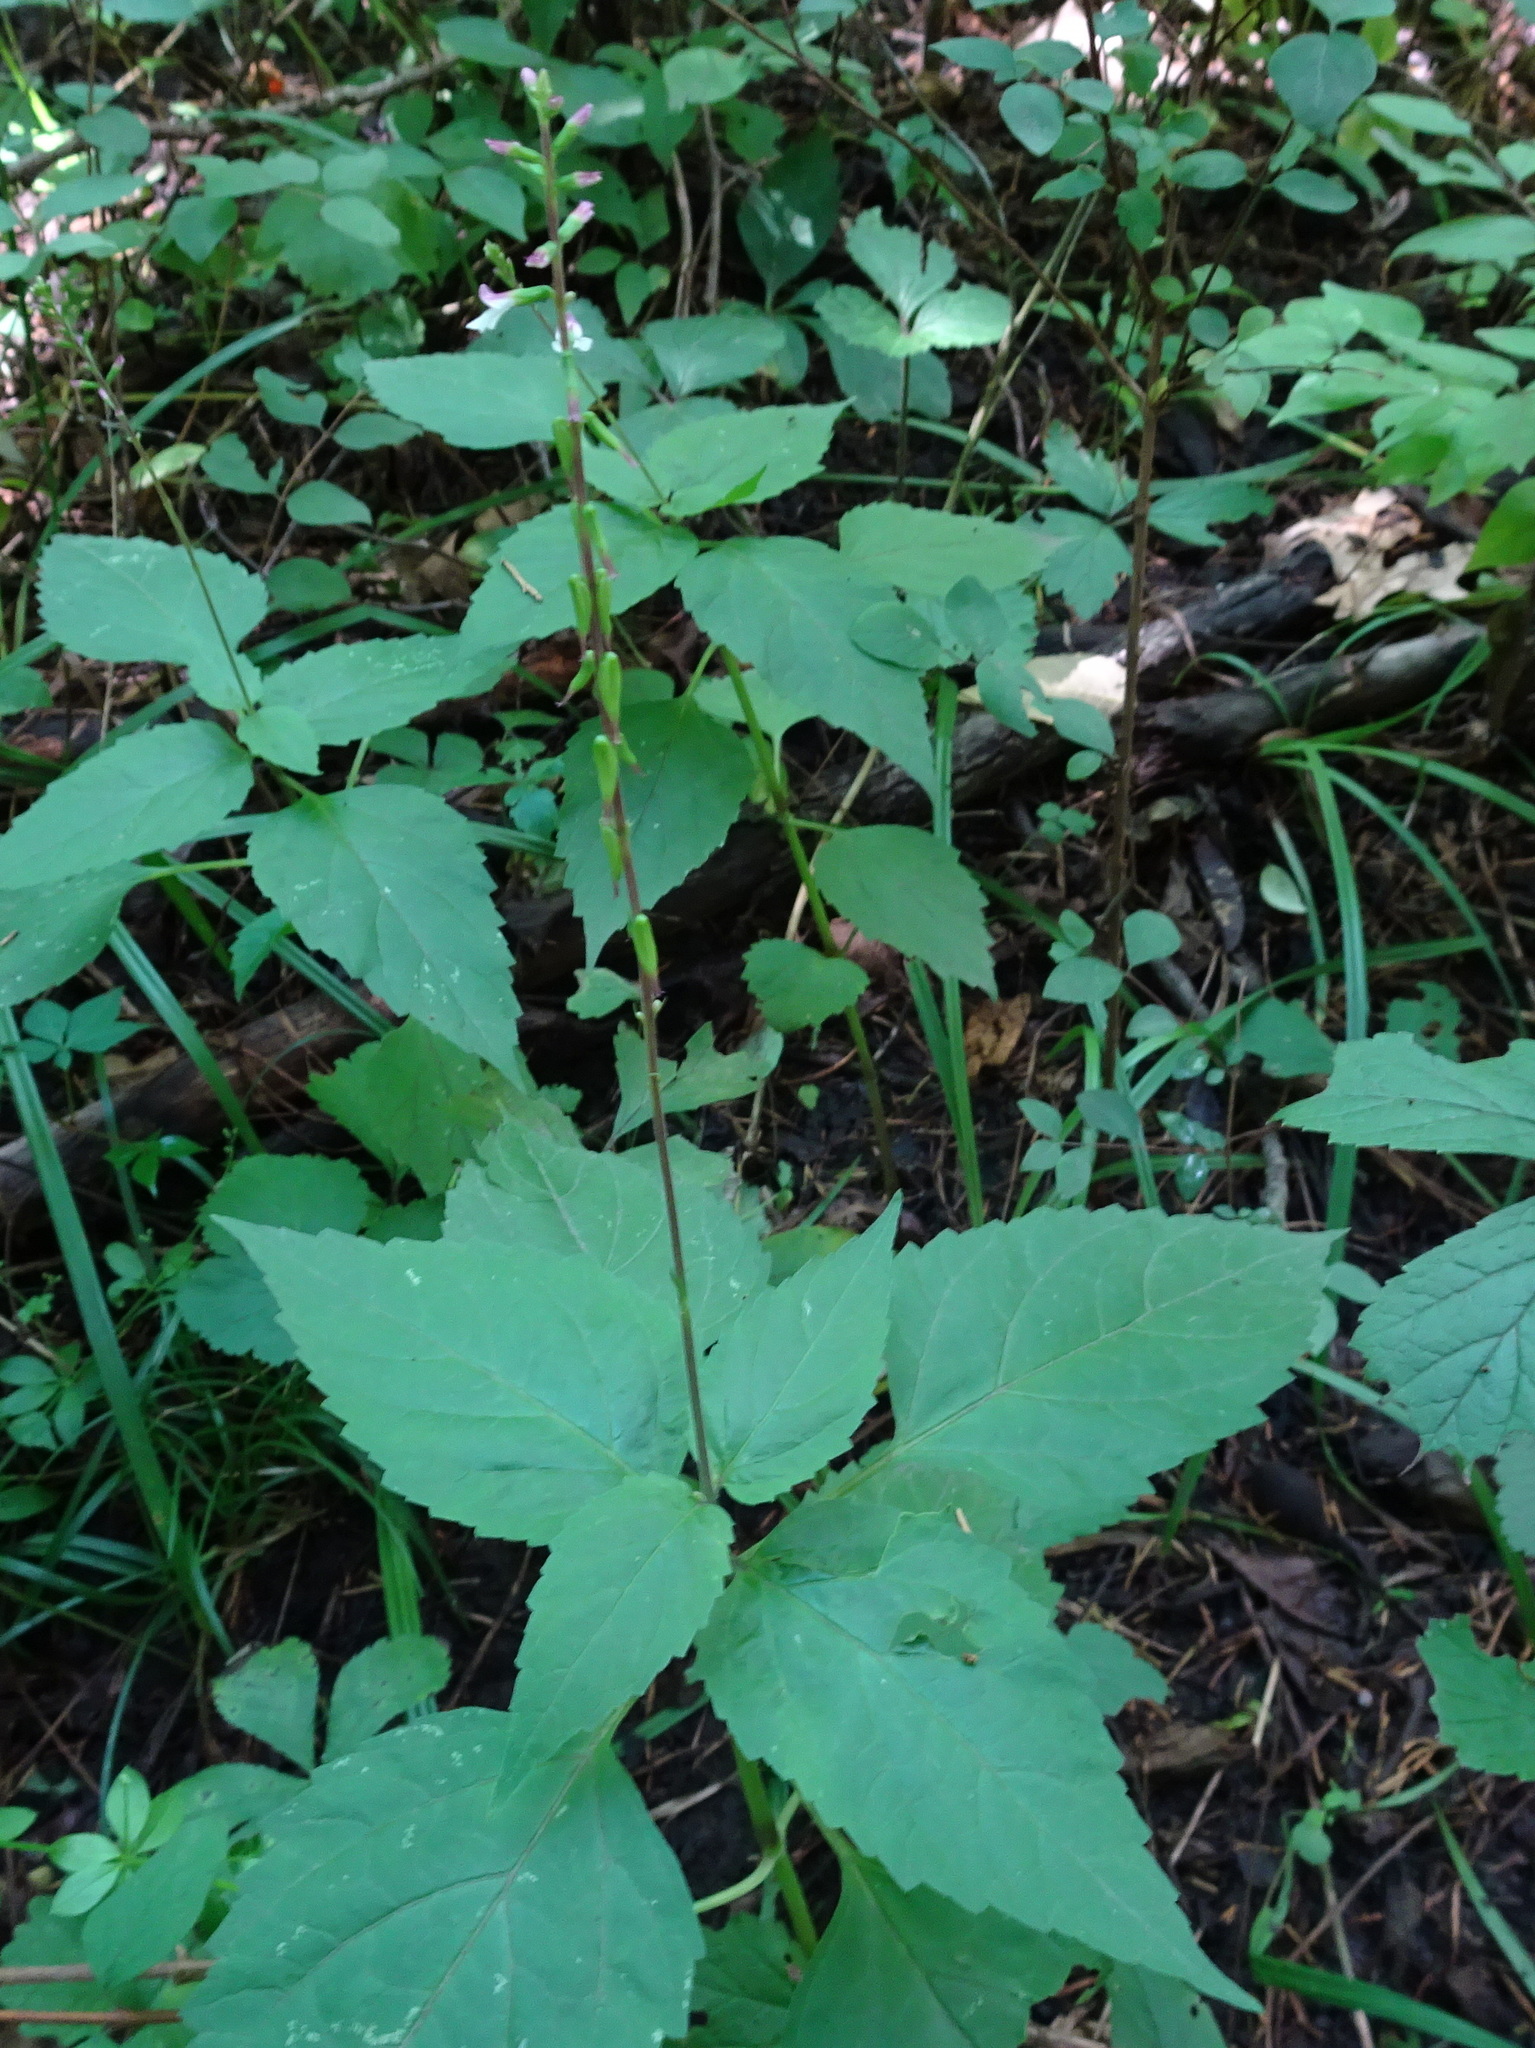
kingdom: Plantae
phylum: Tracheophyta
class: Magnoliopsida
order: Lamiales
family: Phrymaceae
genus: Phryma
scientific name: Phryma leptostachya
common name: American lopseed
